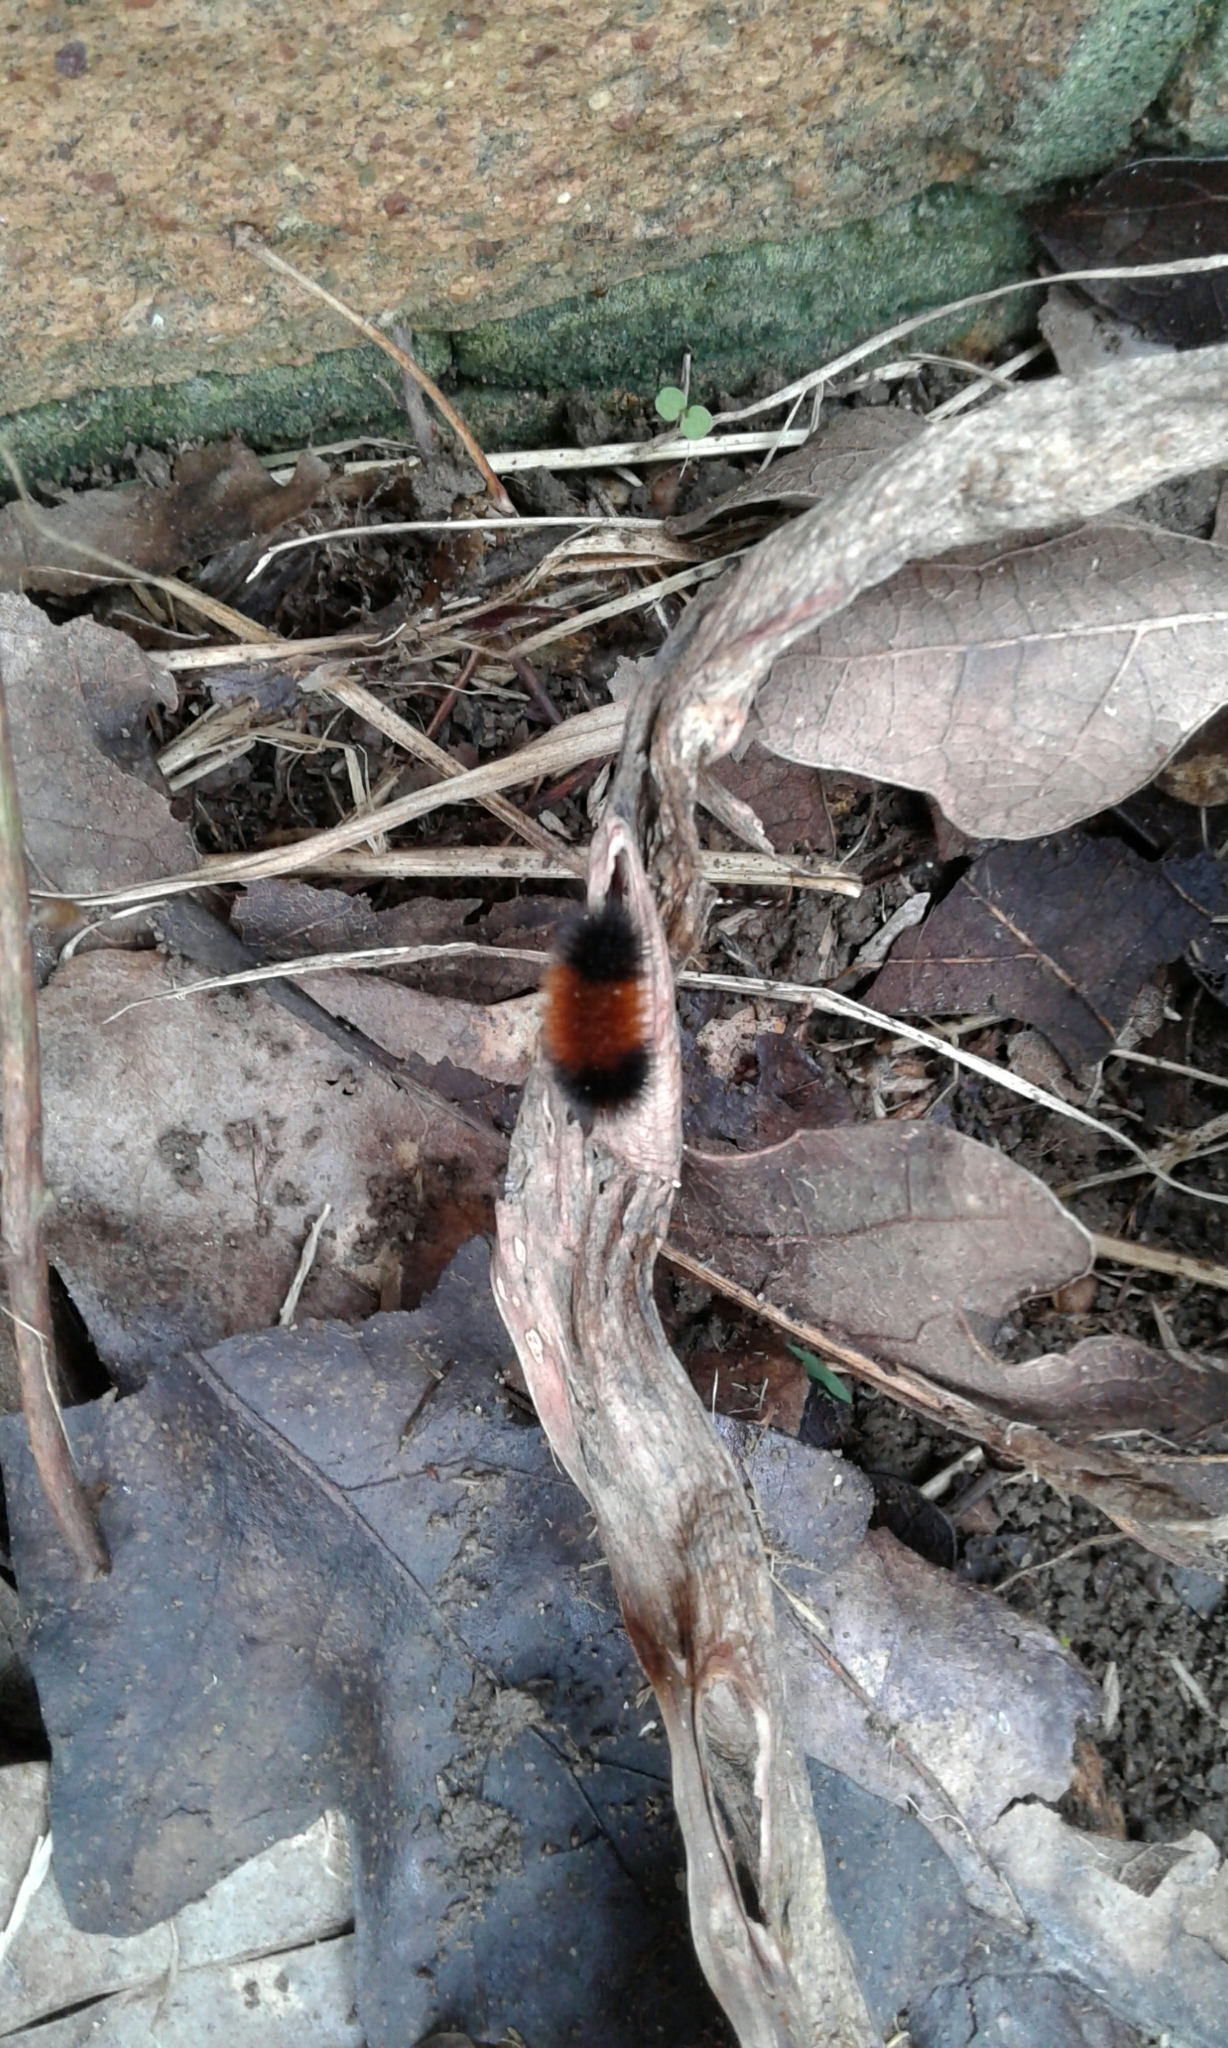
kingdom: Animalia
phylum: Arthropoda
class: Insecta
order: Lepidoptera
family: Erebidae
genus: Pyrrharctia
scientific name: Pyrrharctia isabella
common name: Isabella tiger moth
